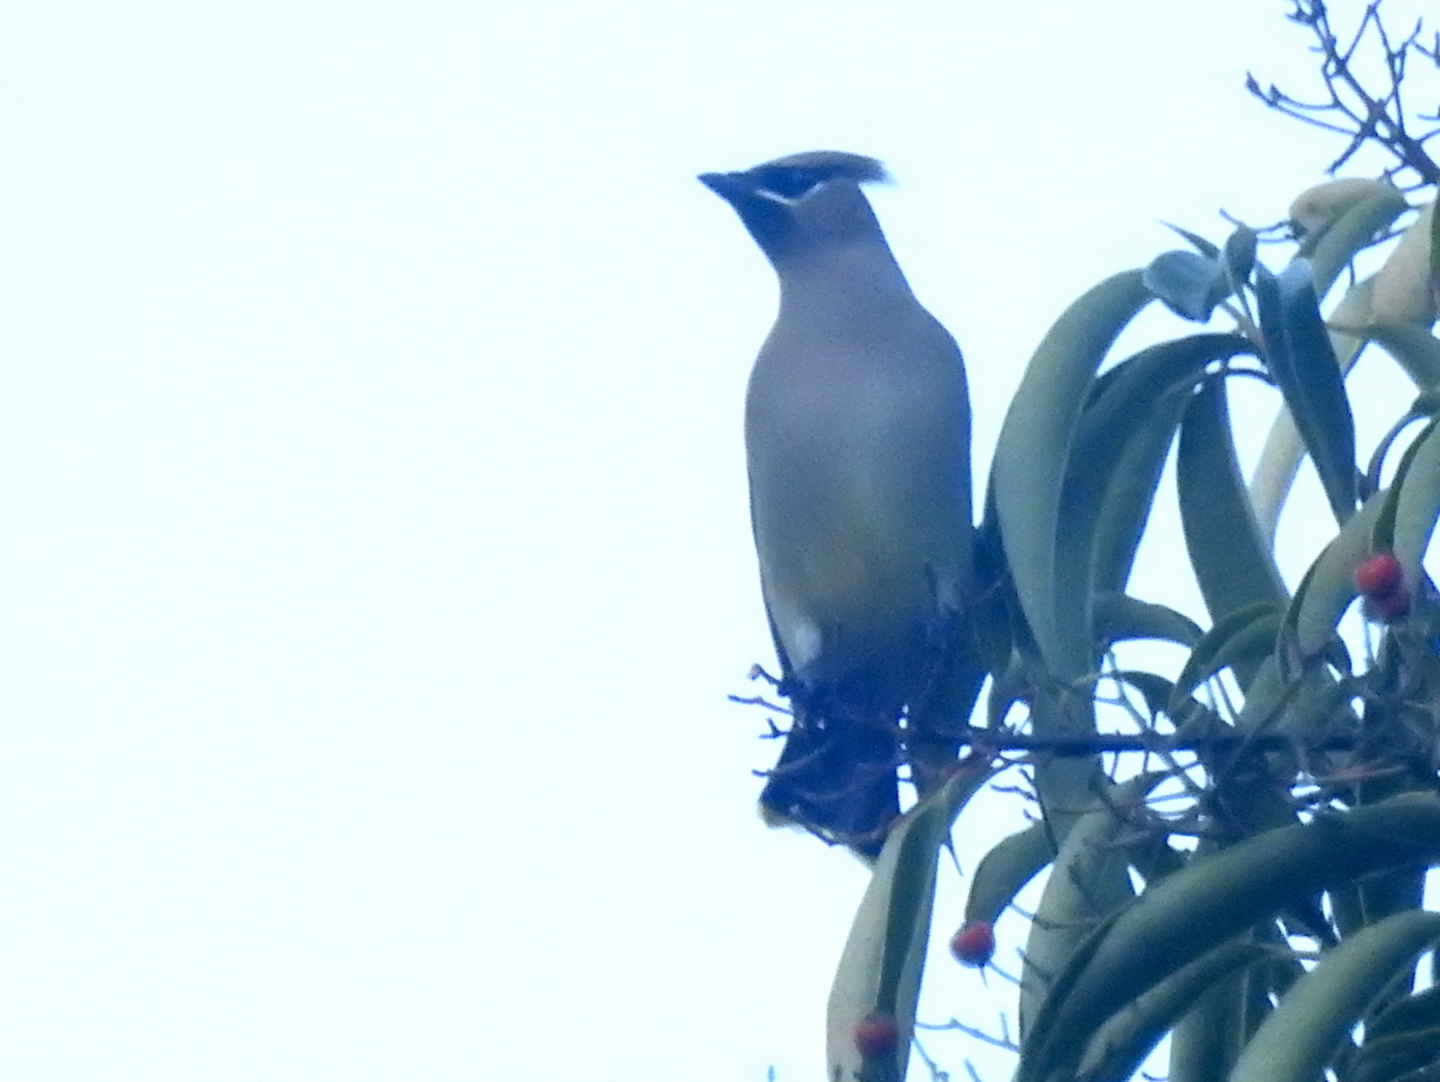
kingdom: Animalia
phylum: Chordata
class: Aves
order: Passeriformes
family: Bombycillidae
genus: Bombycilla
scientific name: Bombycilla cedrorum
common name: Cedar waxwing
